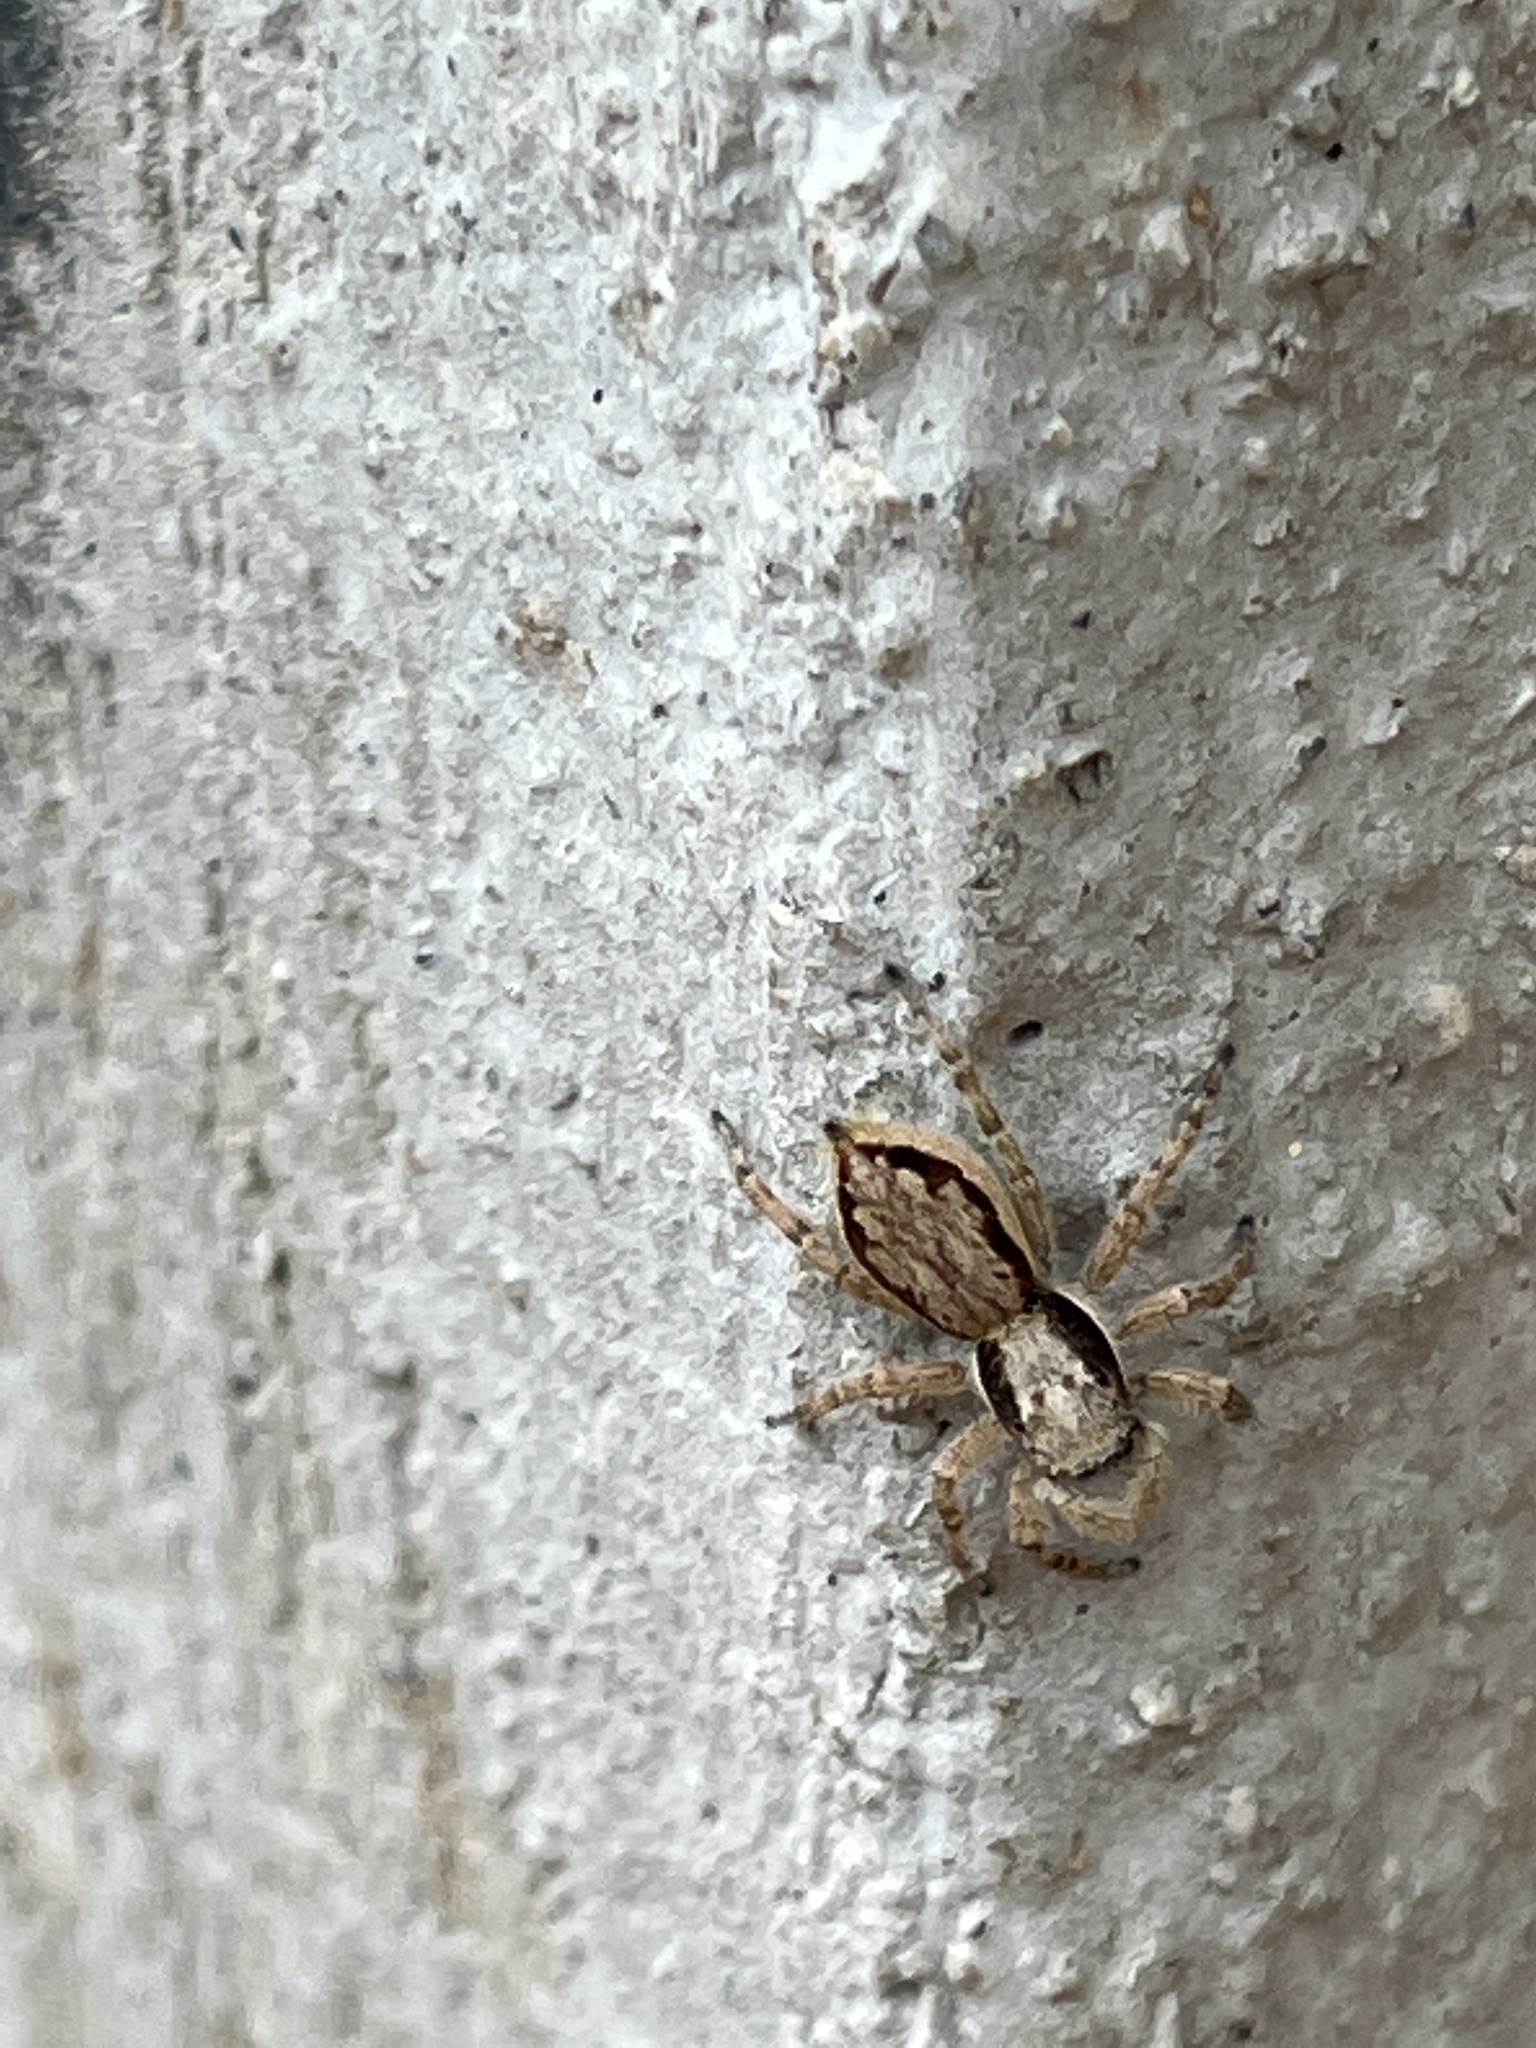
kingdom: Animalia
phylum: Arthropoda
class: Arachnida
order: Araneae
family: Salticidae
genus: Menemerus
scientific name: Menemerus bivittatus
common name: Gray wall jumper
